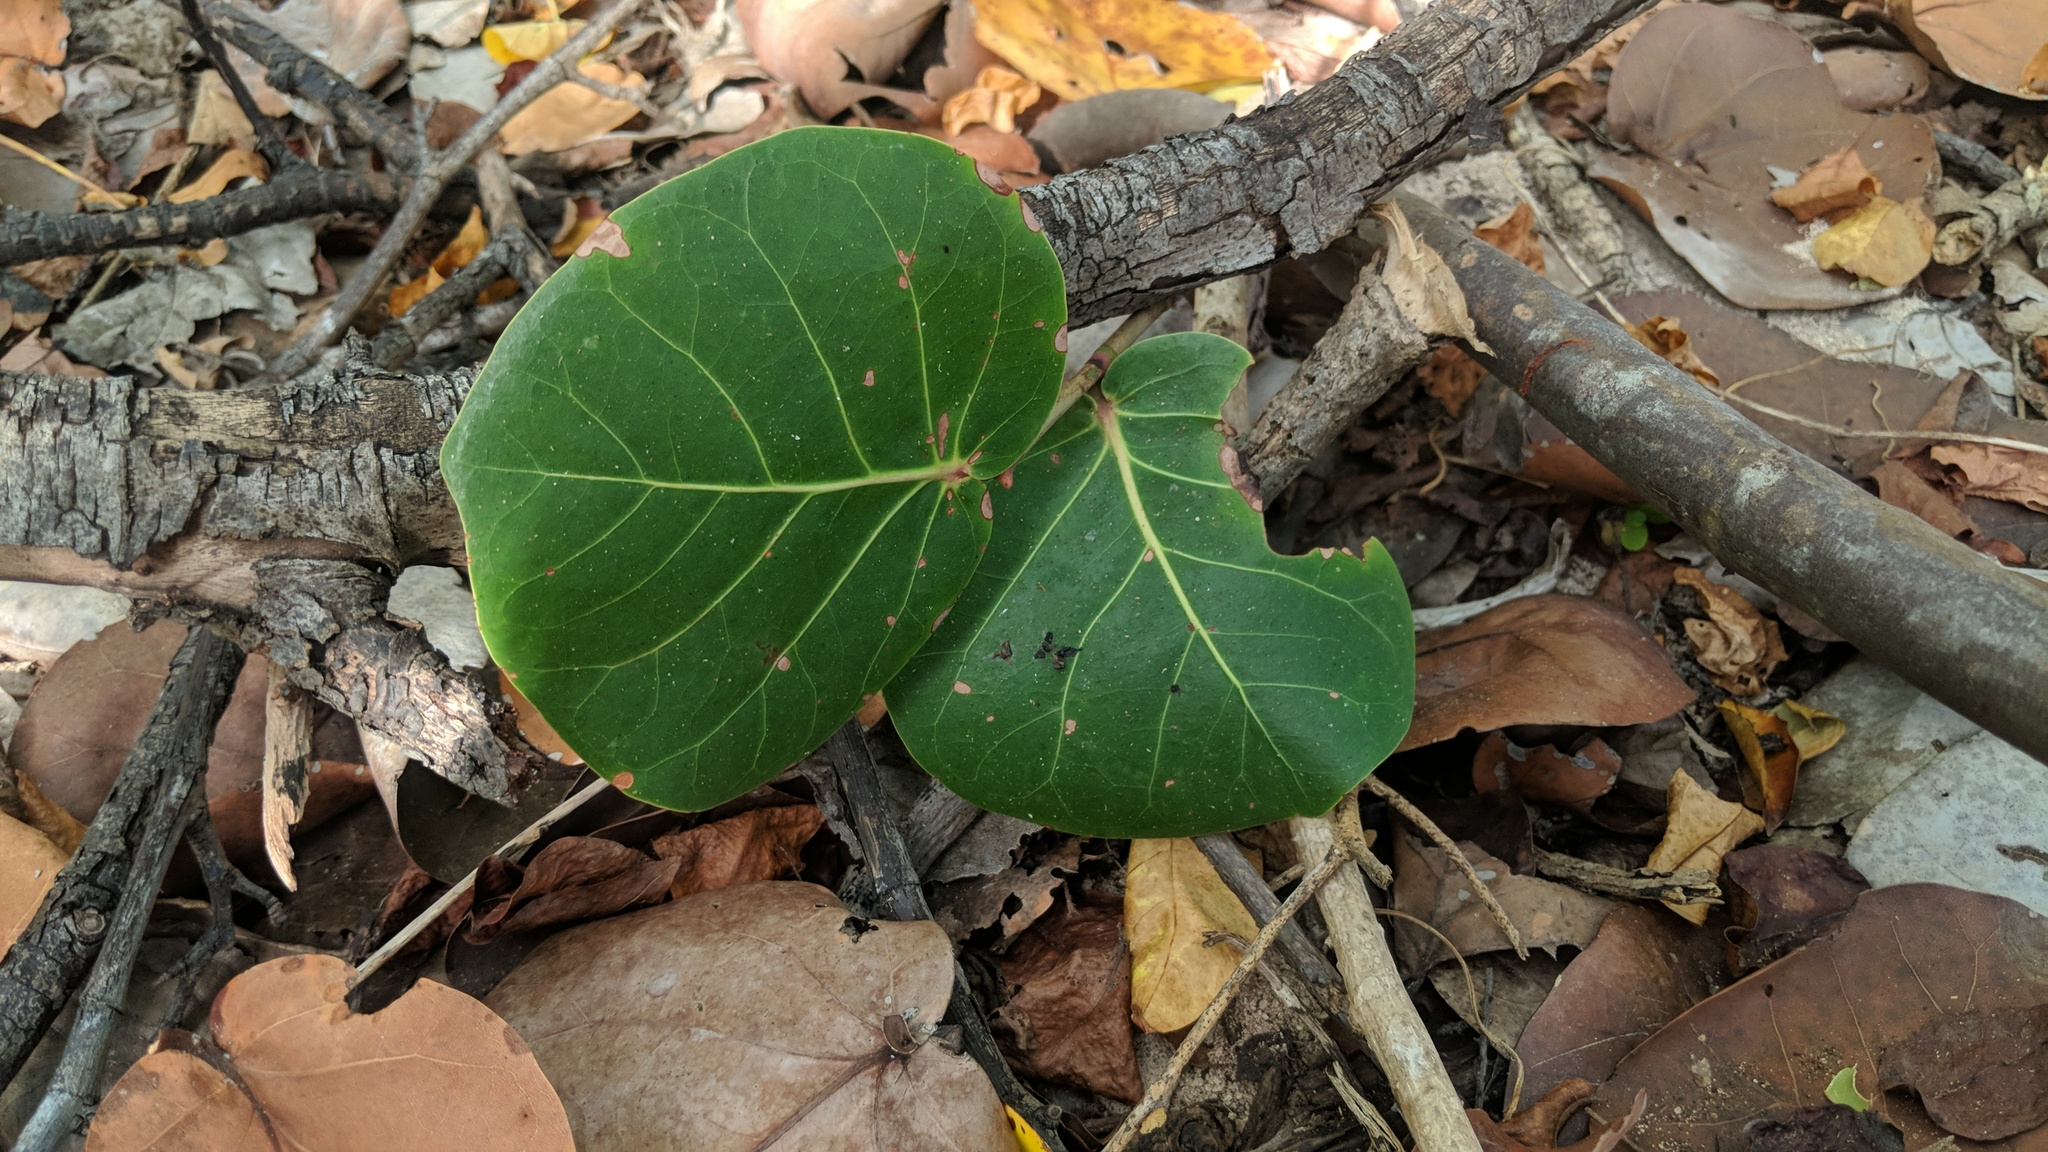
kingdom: Plantae
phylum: Tracheophyta
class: Magnoliopsida
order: Caryophyllales
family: Polygonaceae
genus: Coccoloba
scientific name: Coccoloba uvifera
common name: Seagrape
